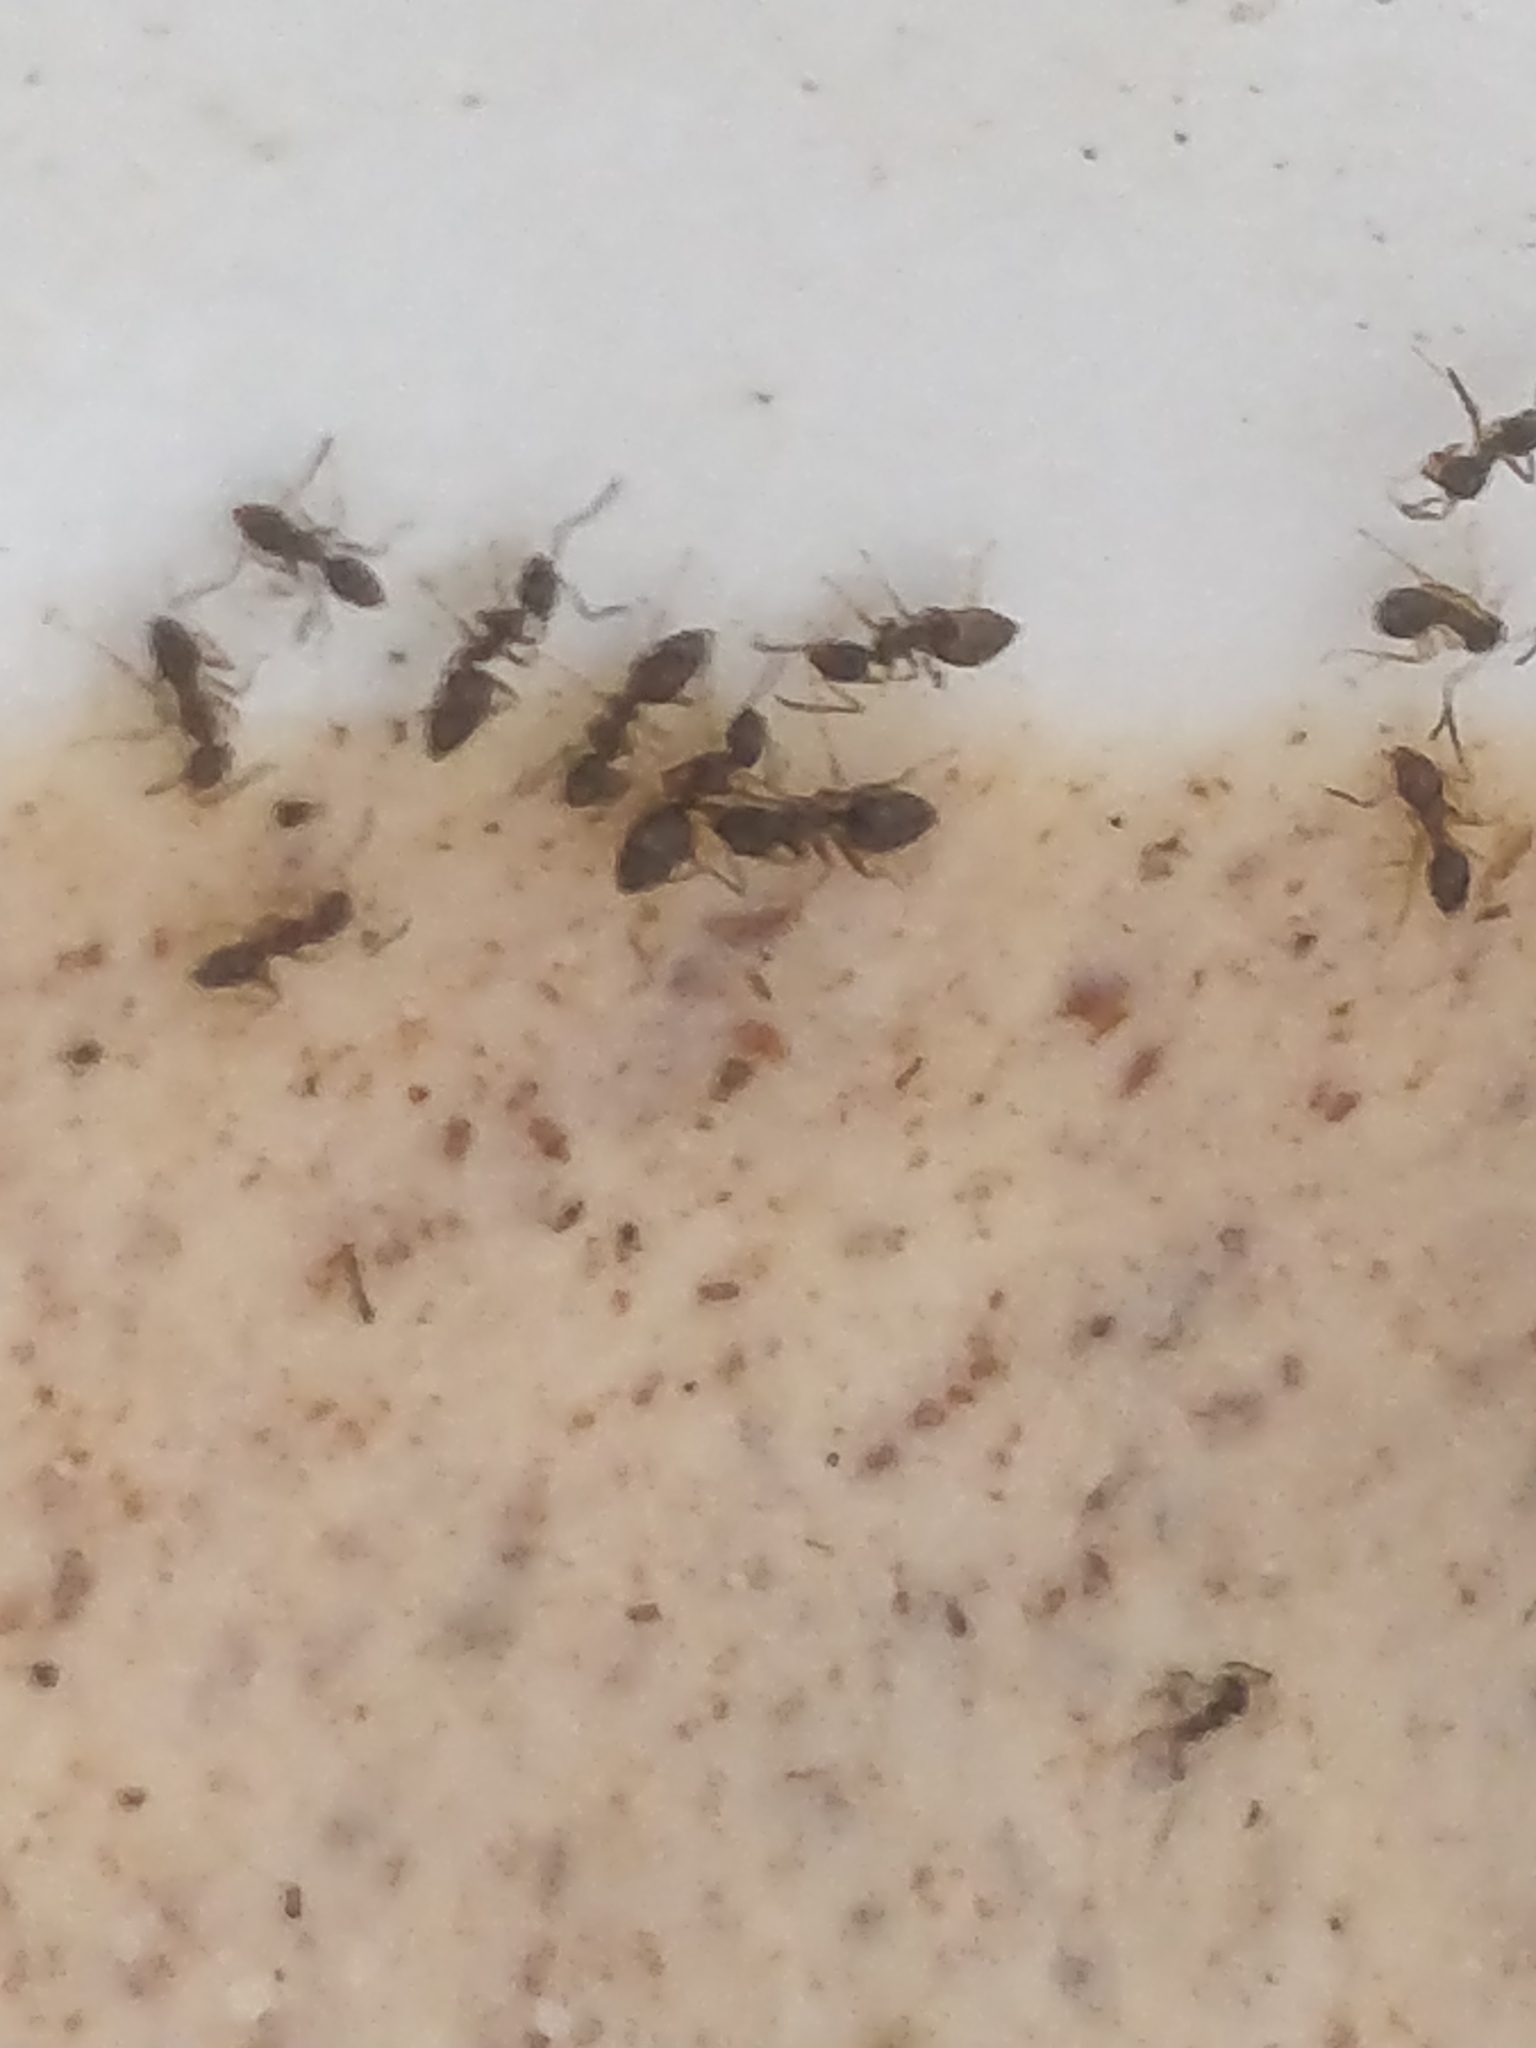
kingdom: Animalia
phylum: Arthropoda
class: Insecta
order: Hymenoptera
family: Formicidae
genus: Tapinoma
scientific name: Tapinoma sessile
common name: Odorous house ant
